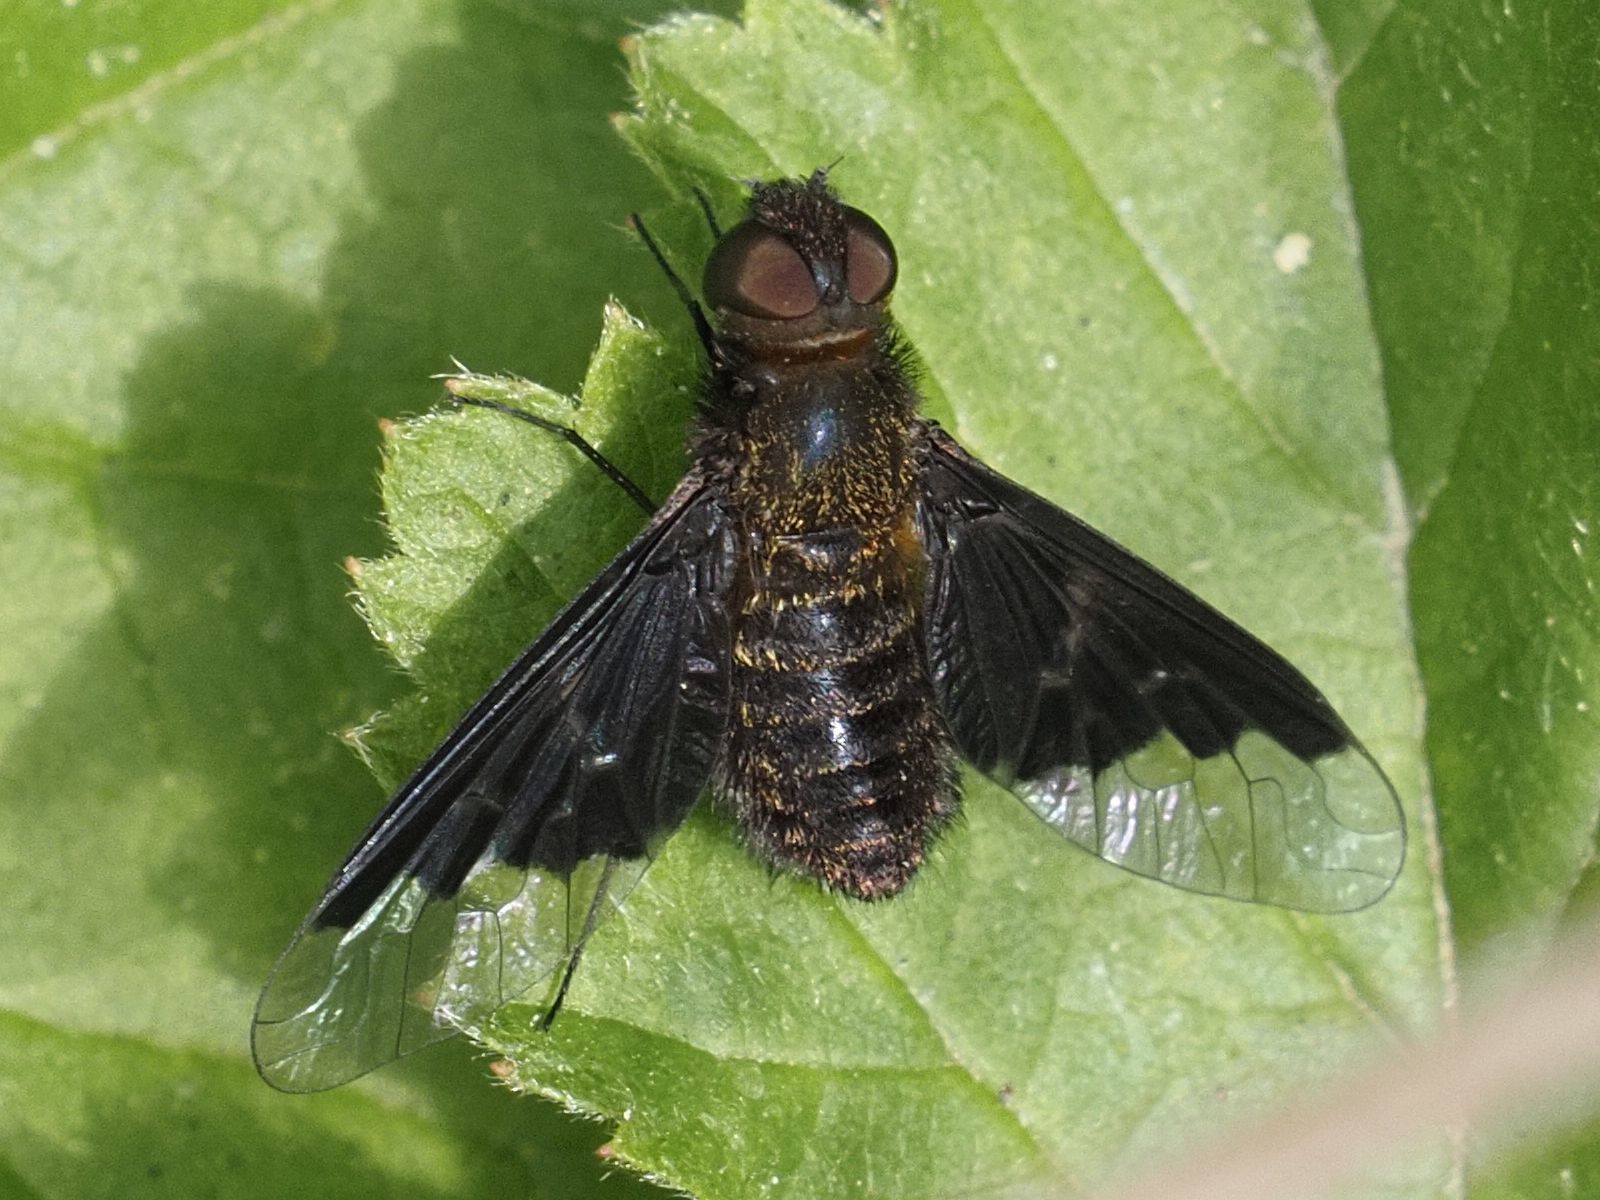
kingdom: Animalia
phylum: Arthropoda
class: Insecta
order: Diptera
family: Bombyliidae
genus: Hemipenthes
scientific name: Hemipenthes morio
